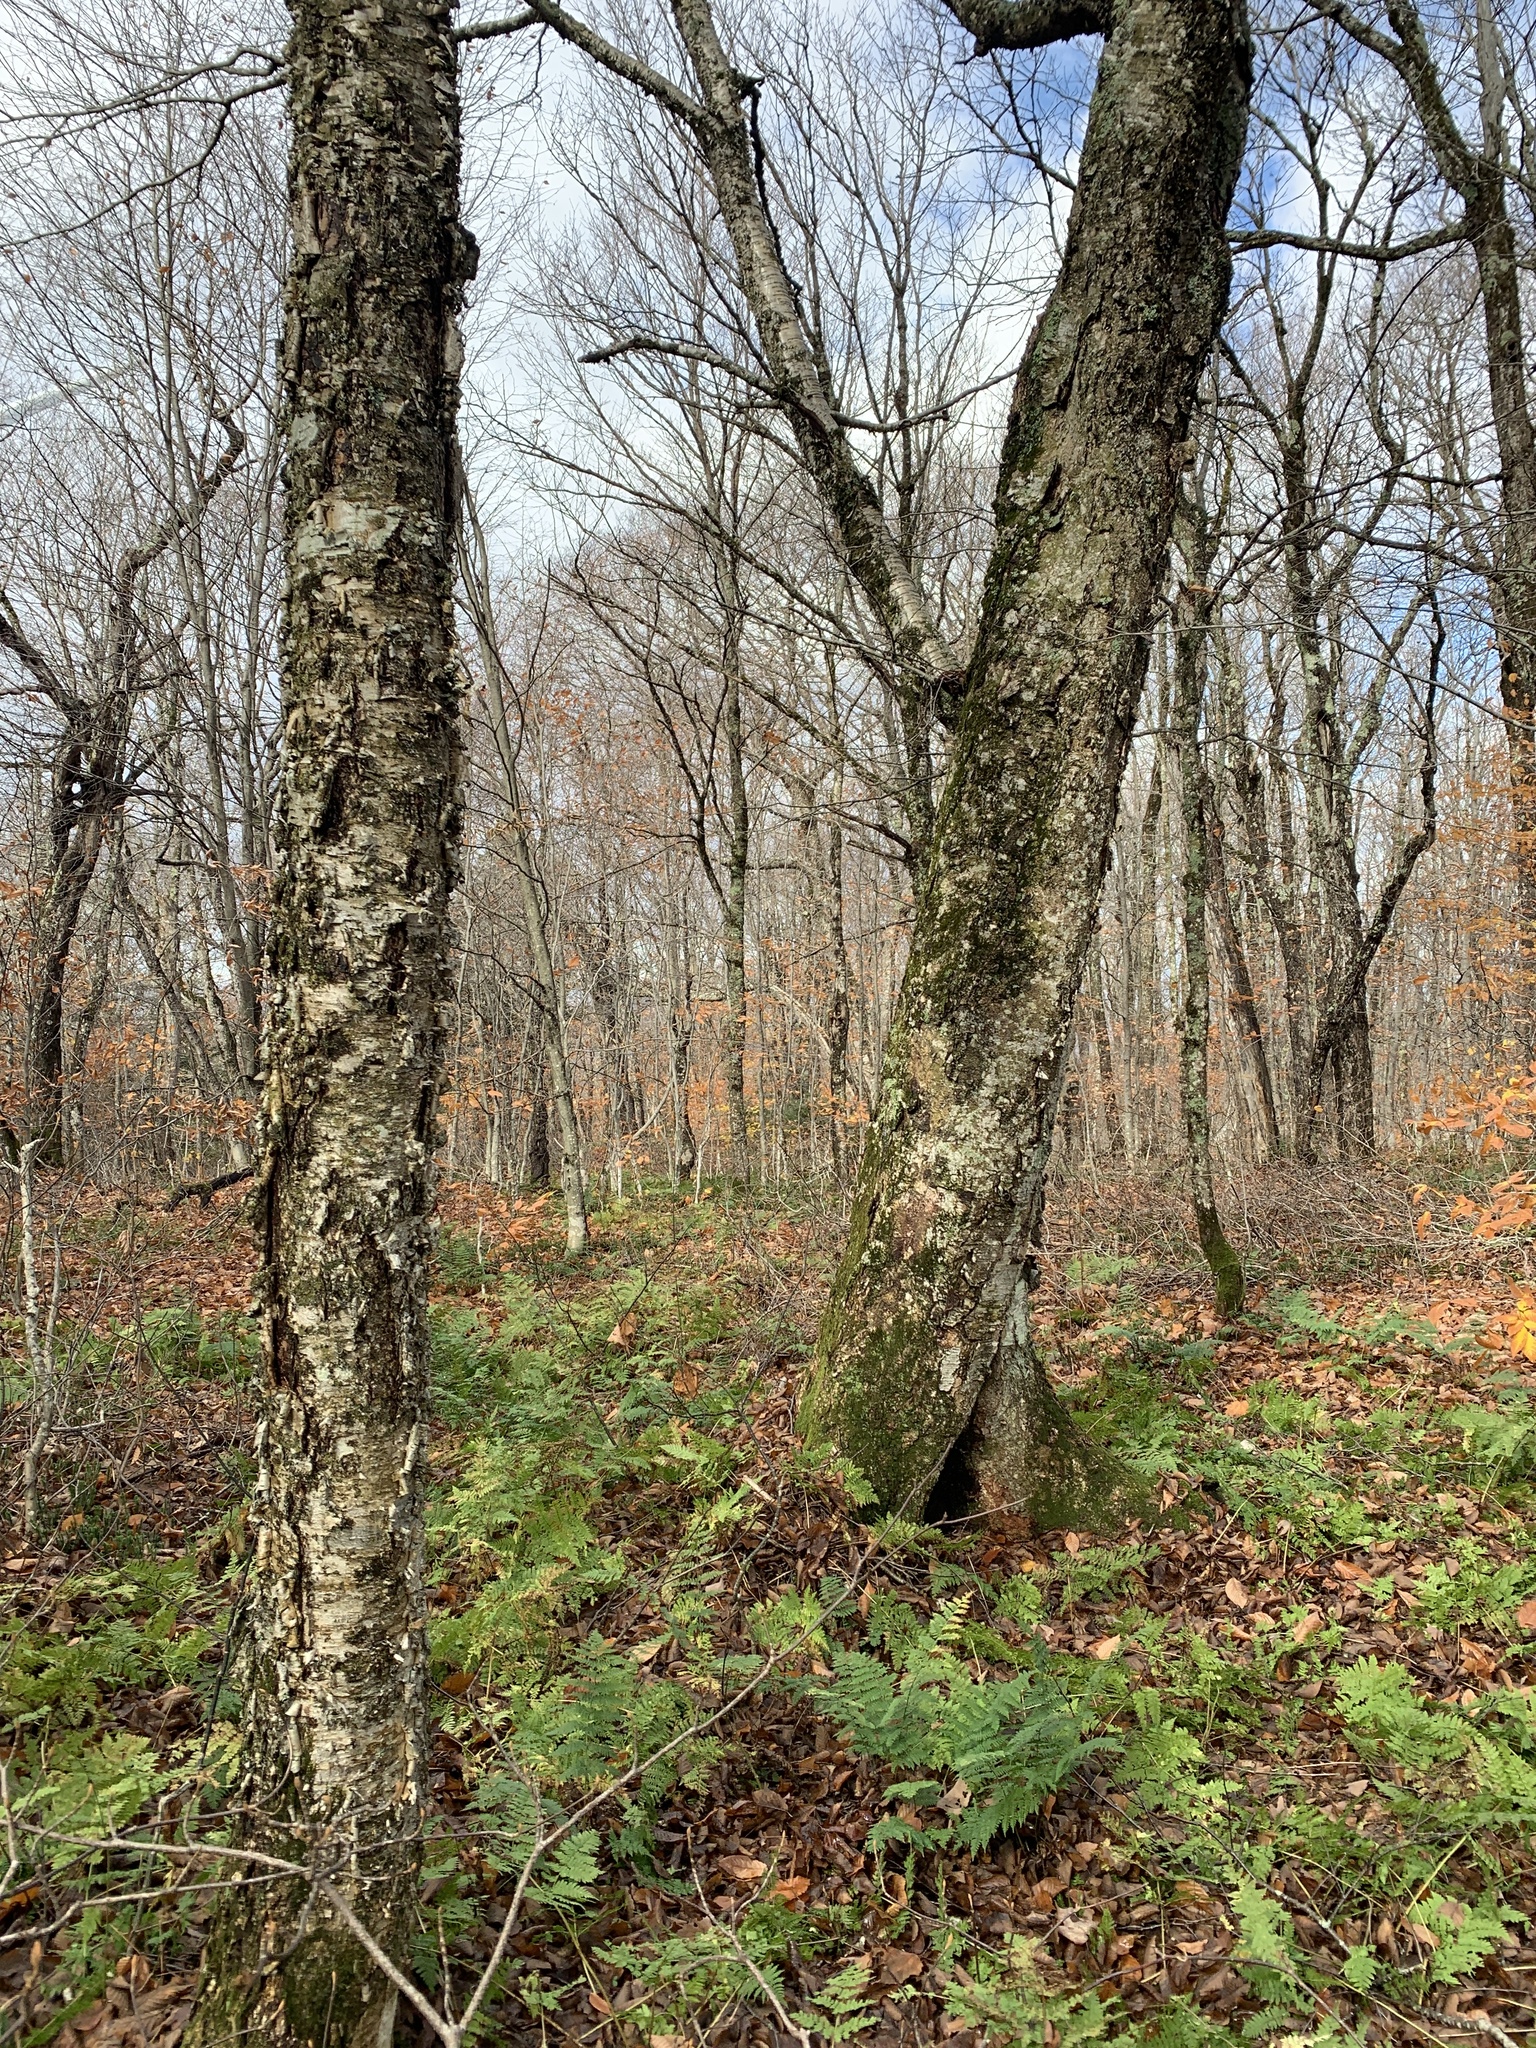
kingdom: Plantae
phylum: Tracheophyta
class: Magnoliopsida
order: Fagales
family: Betulaceae
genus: Betula
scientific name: Betula alleghaniensis
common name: Yellow birch
